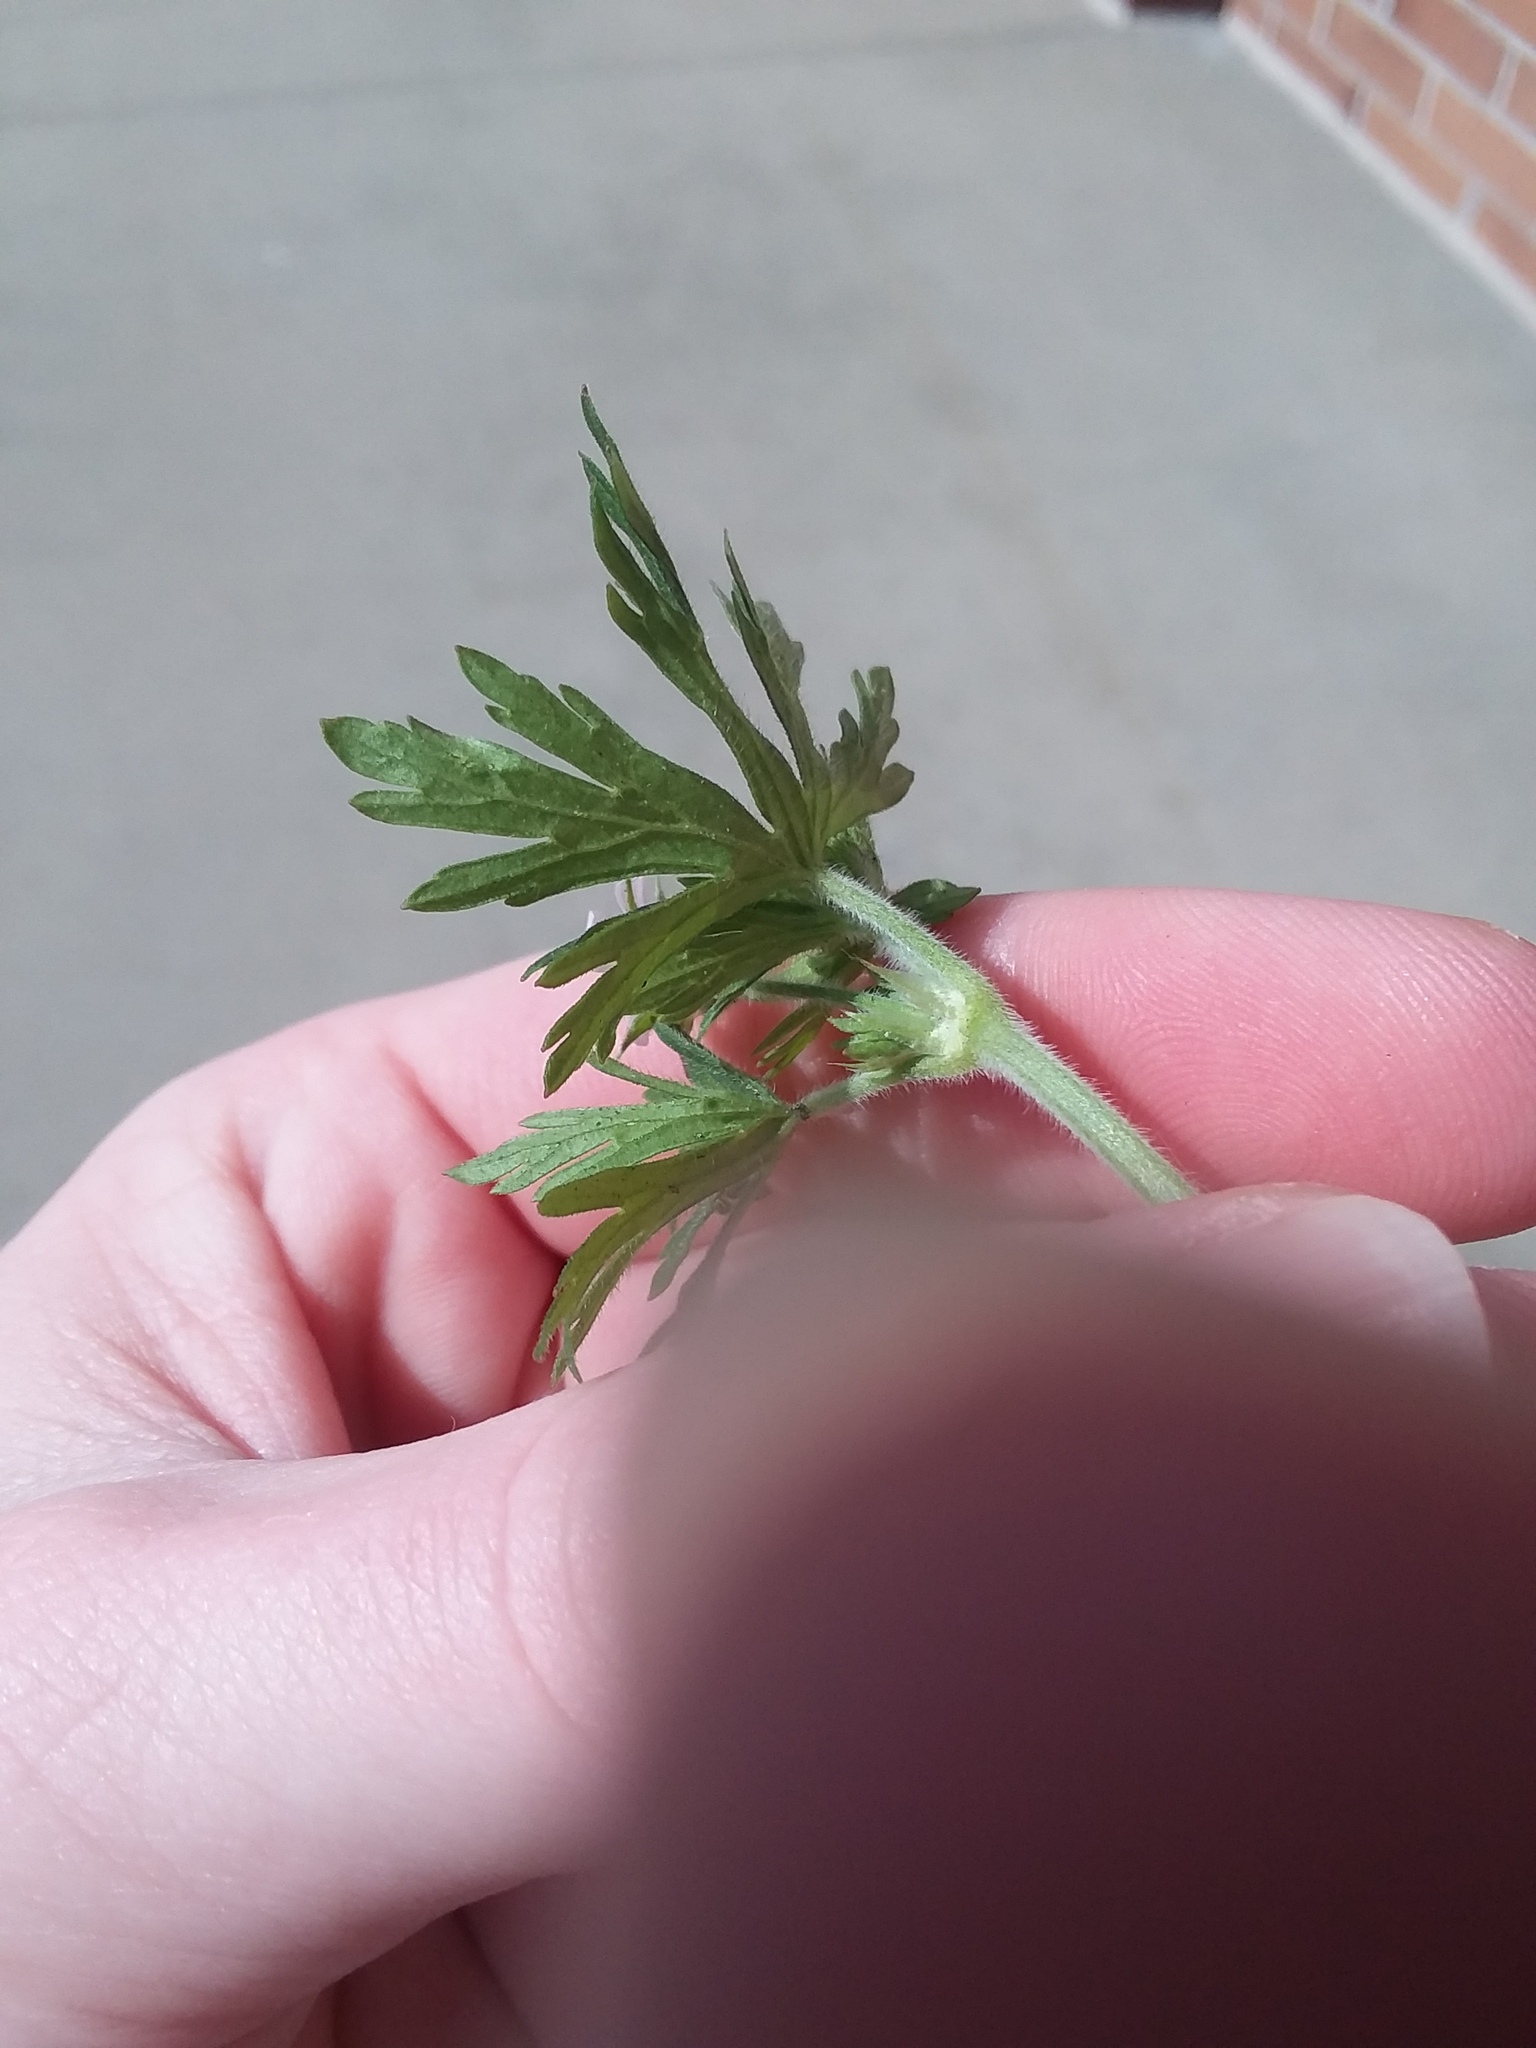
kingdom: Plantae
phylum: Tracheophyta
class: Magnoliopsida
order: Geraniales
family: Geraniaceae
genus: Geranium
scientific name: Geranium carolinianum
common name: Carolina crane's-bill
